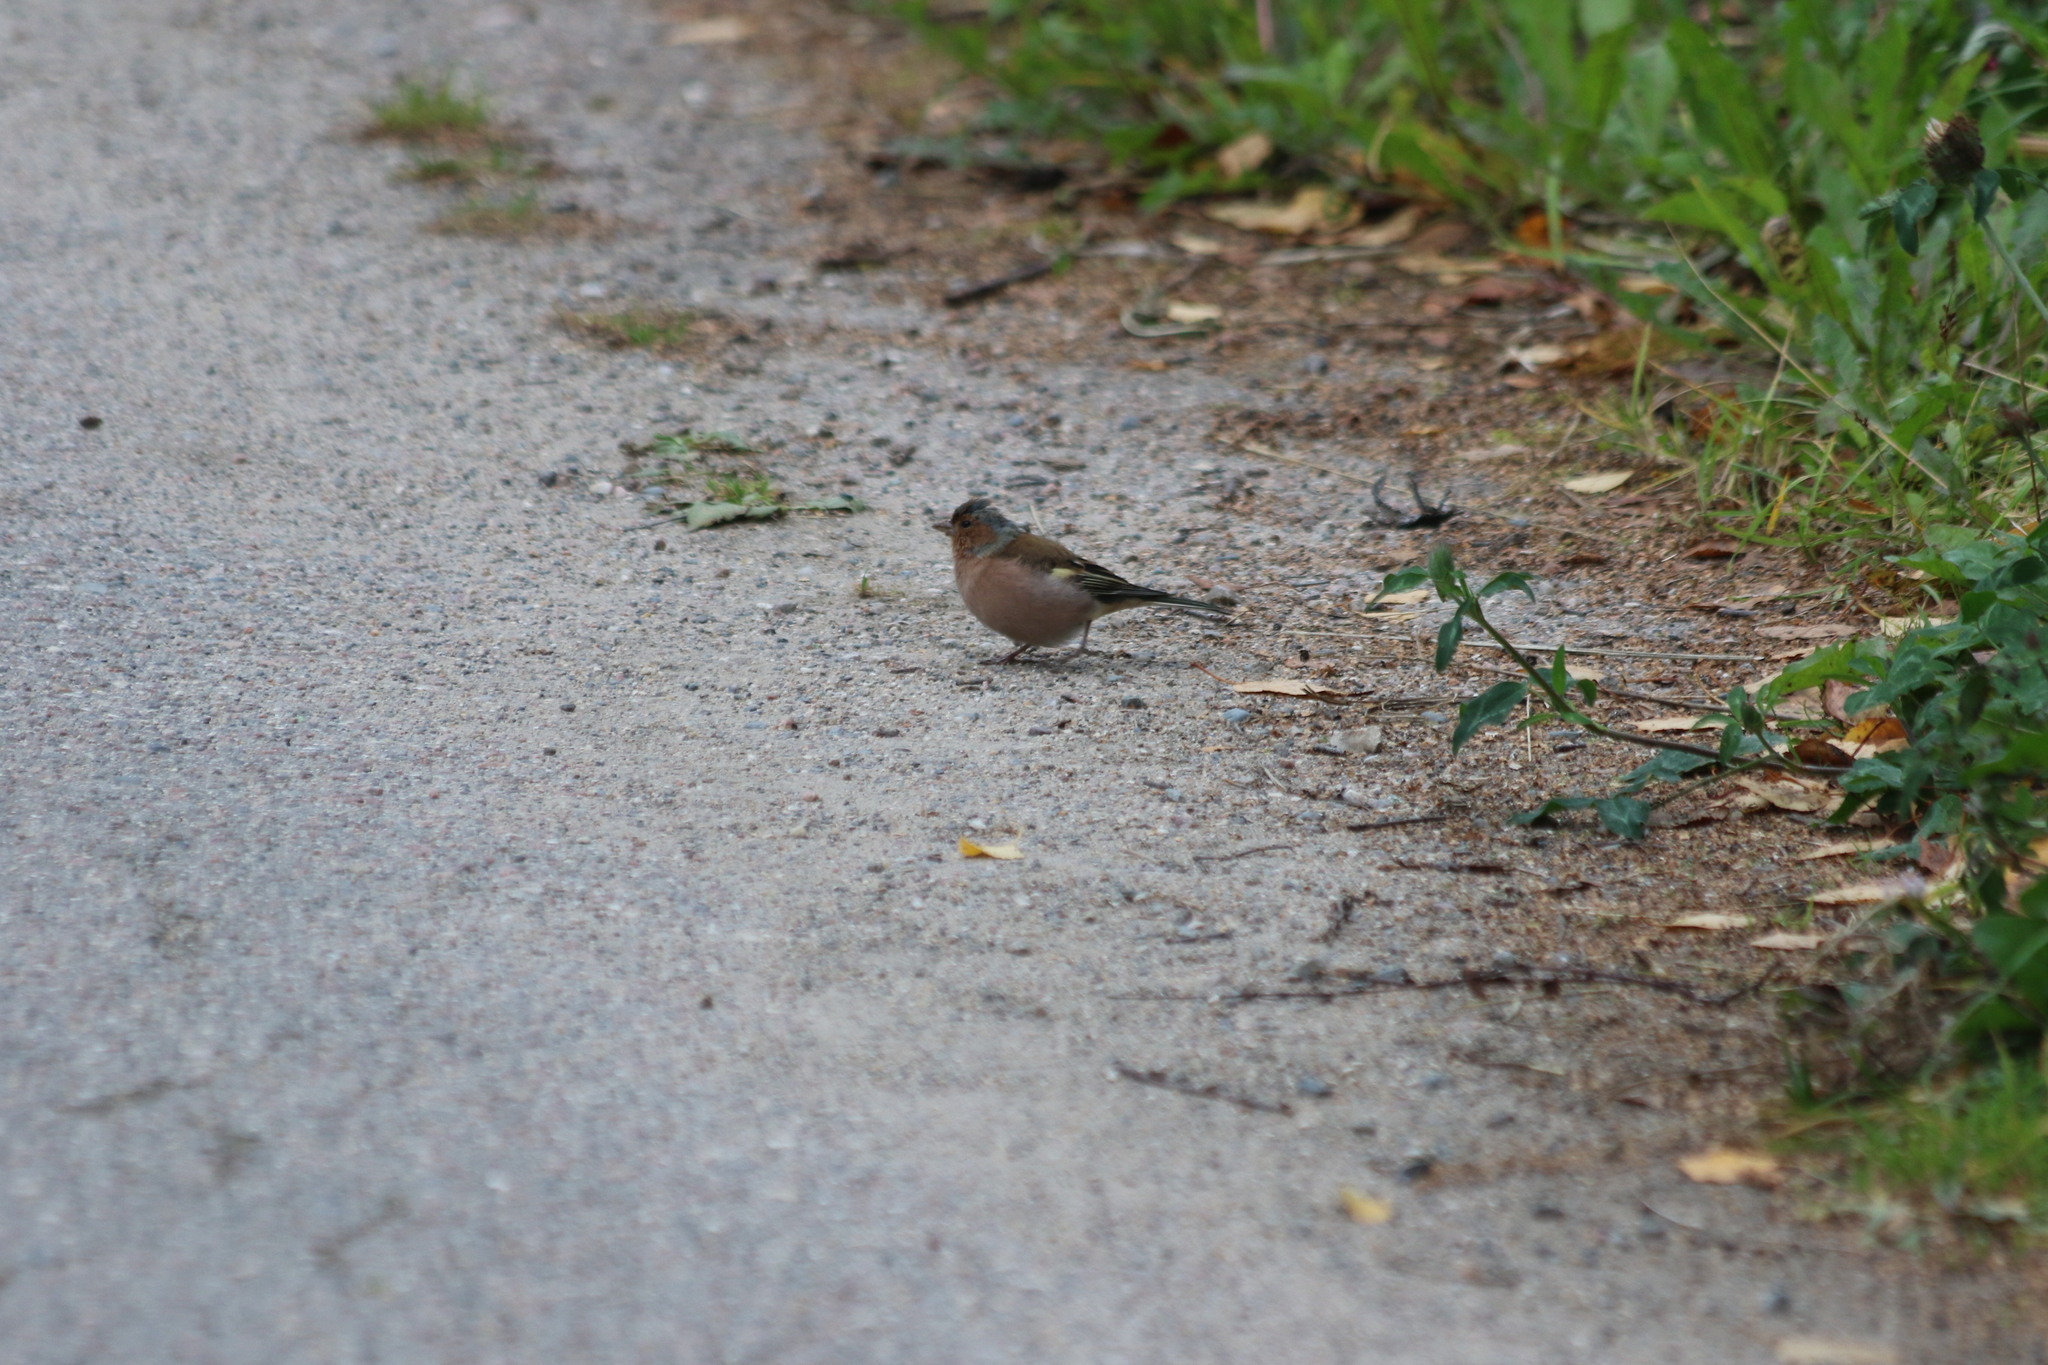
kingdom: Animalia
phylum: Chordata
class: Aves
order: Passeriformes
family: Fringillidae
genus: Fringilla
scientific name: Fringilla coelebs
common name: Common chaffinch
